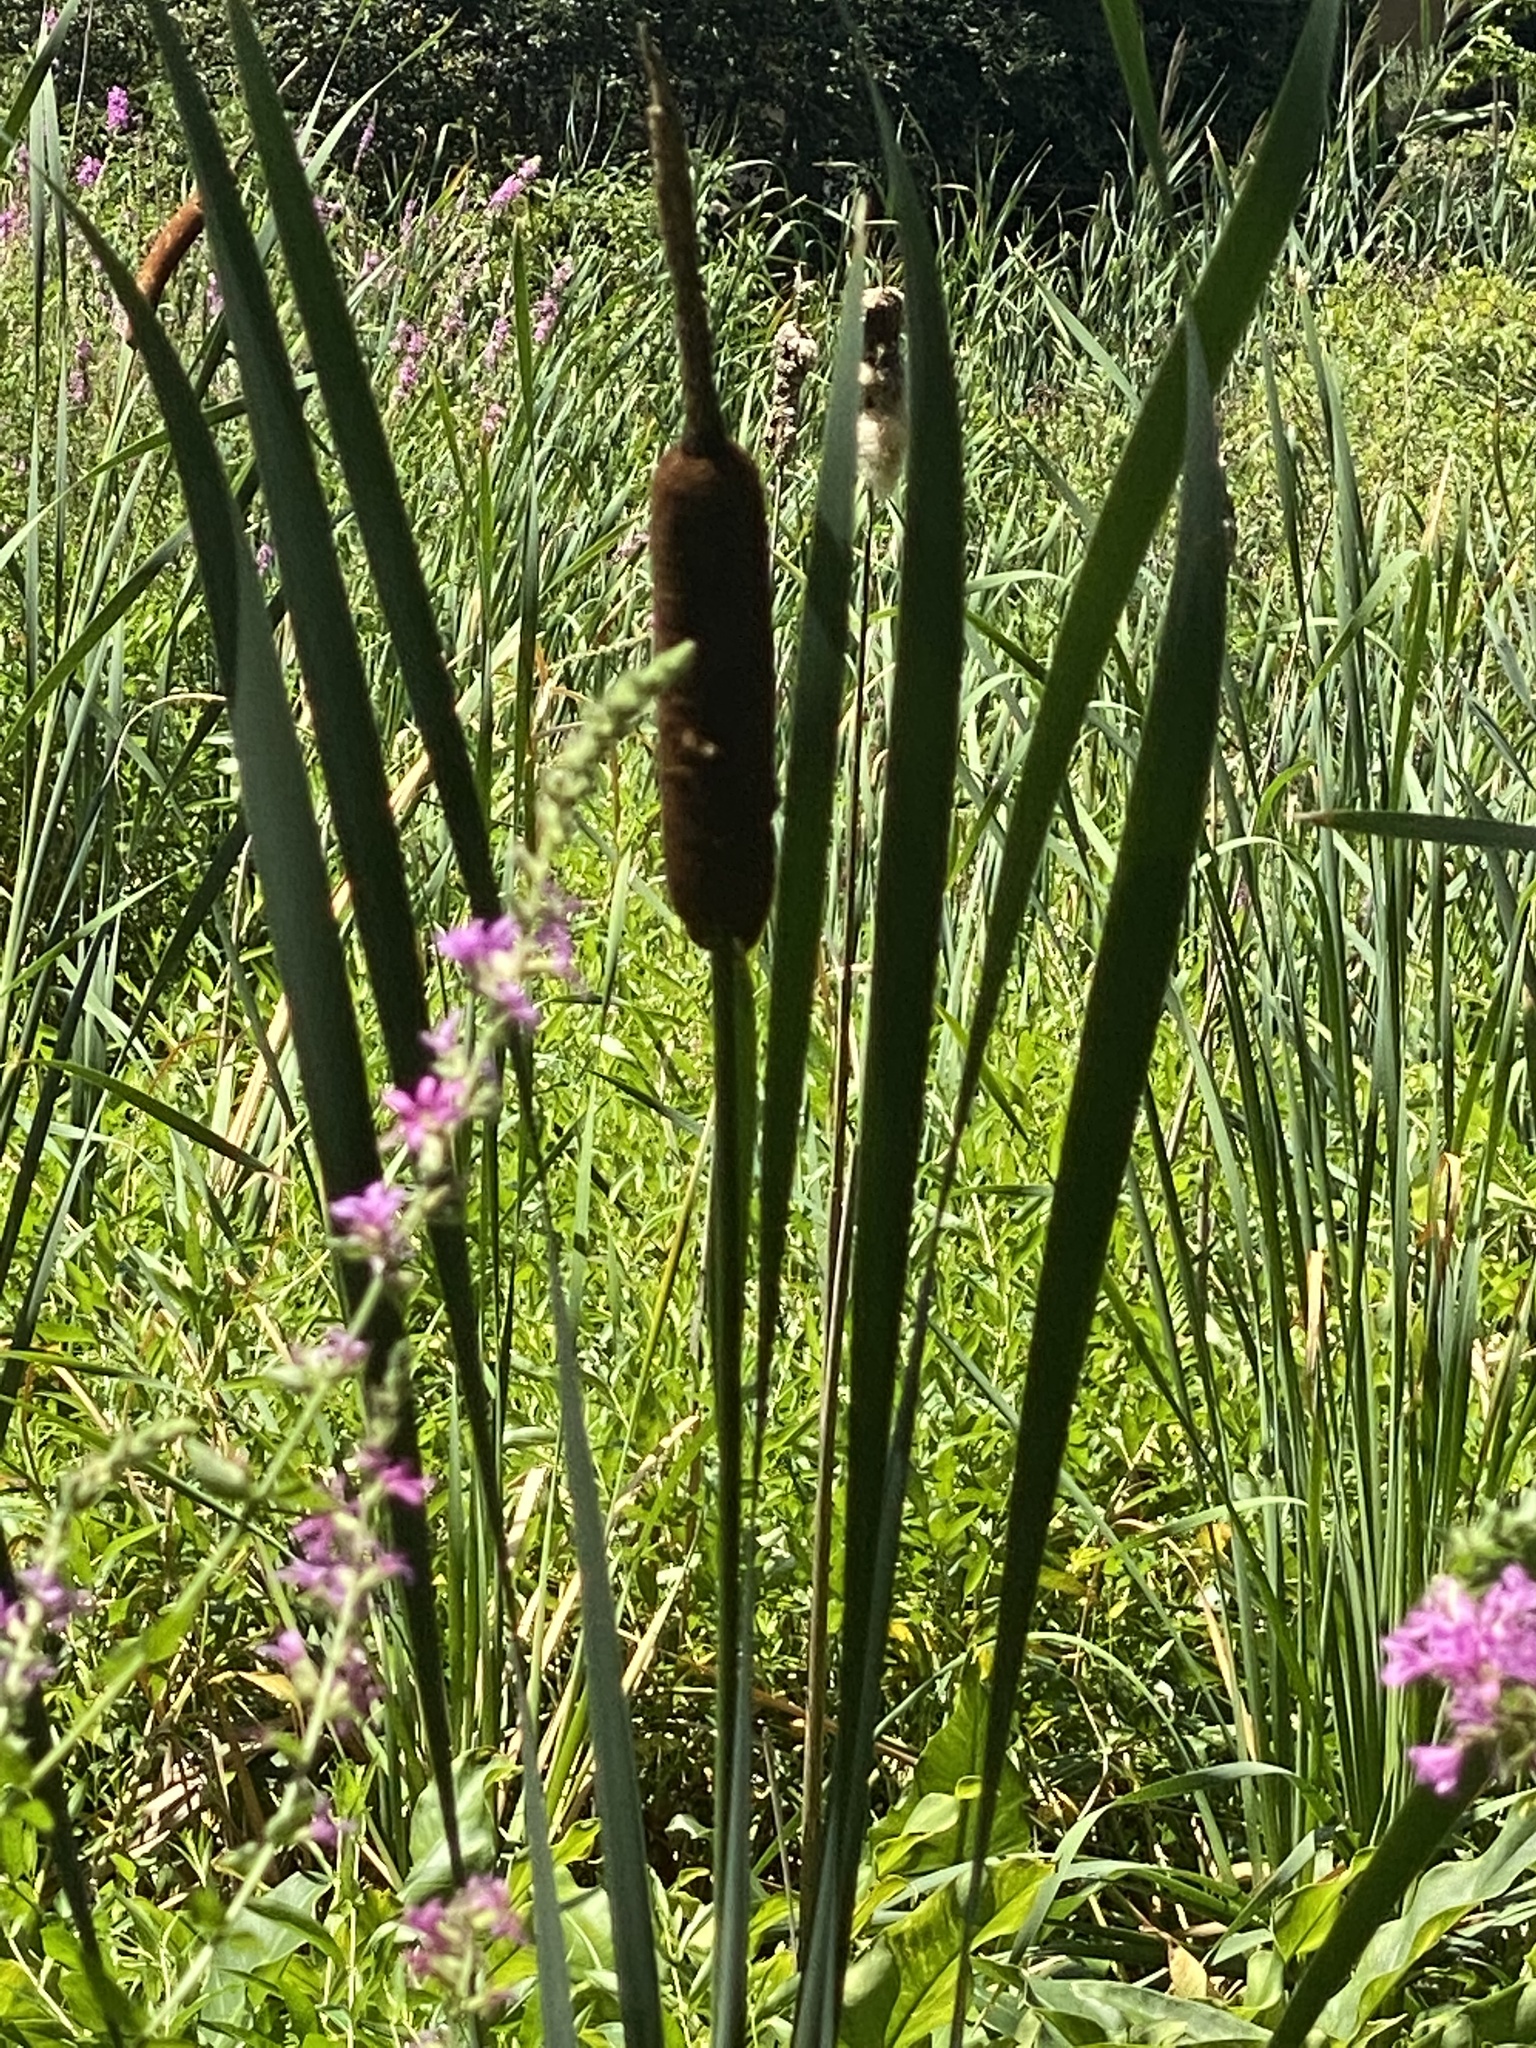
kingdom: Plantae
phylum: Tracheophyta
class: Liliopsida
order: Poales
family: Typhaceae
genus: Typha
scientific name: Typha latifolia
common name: Broadleaf cattail
